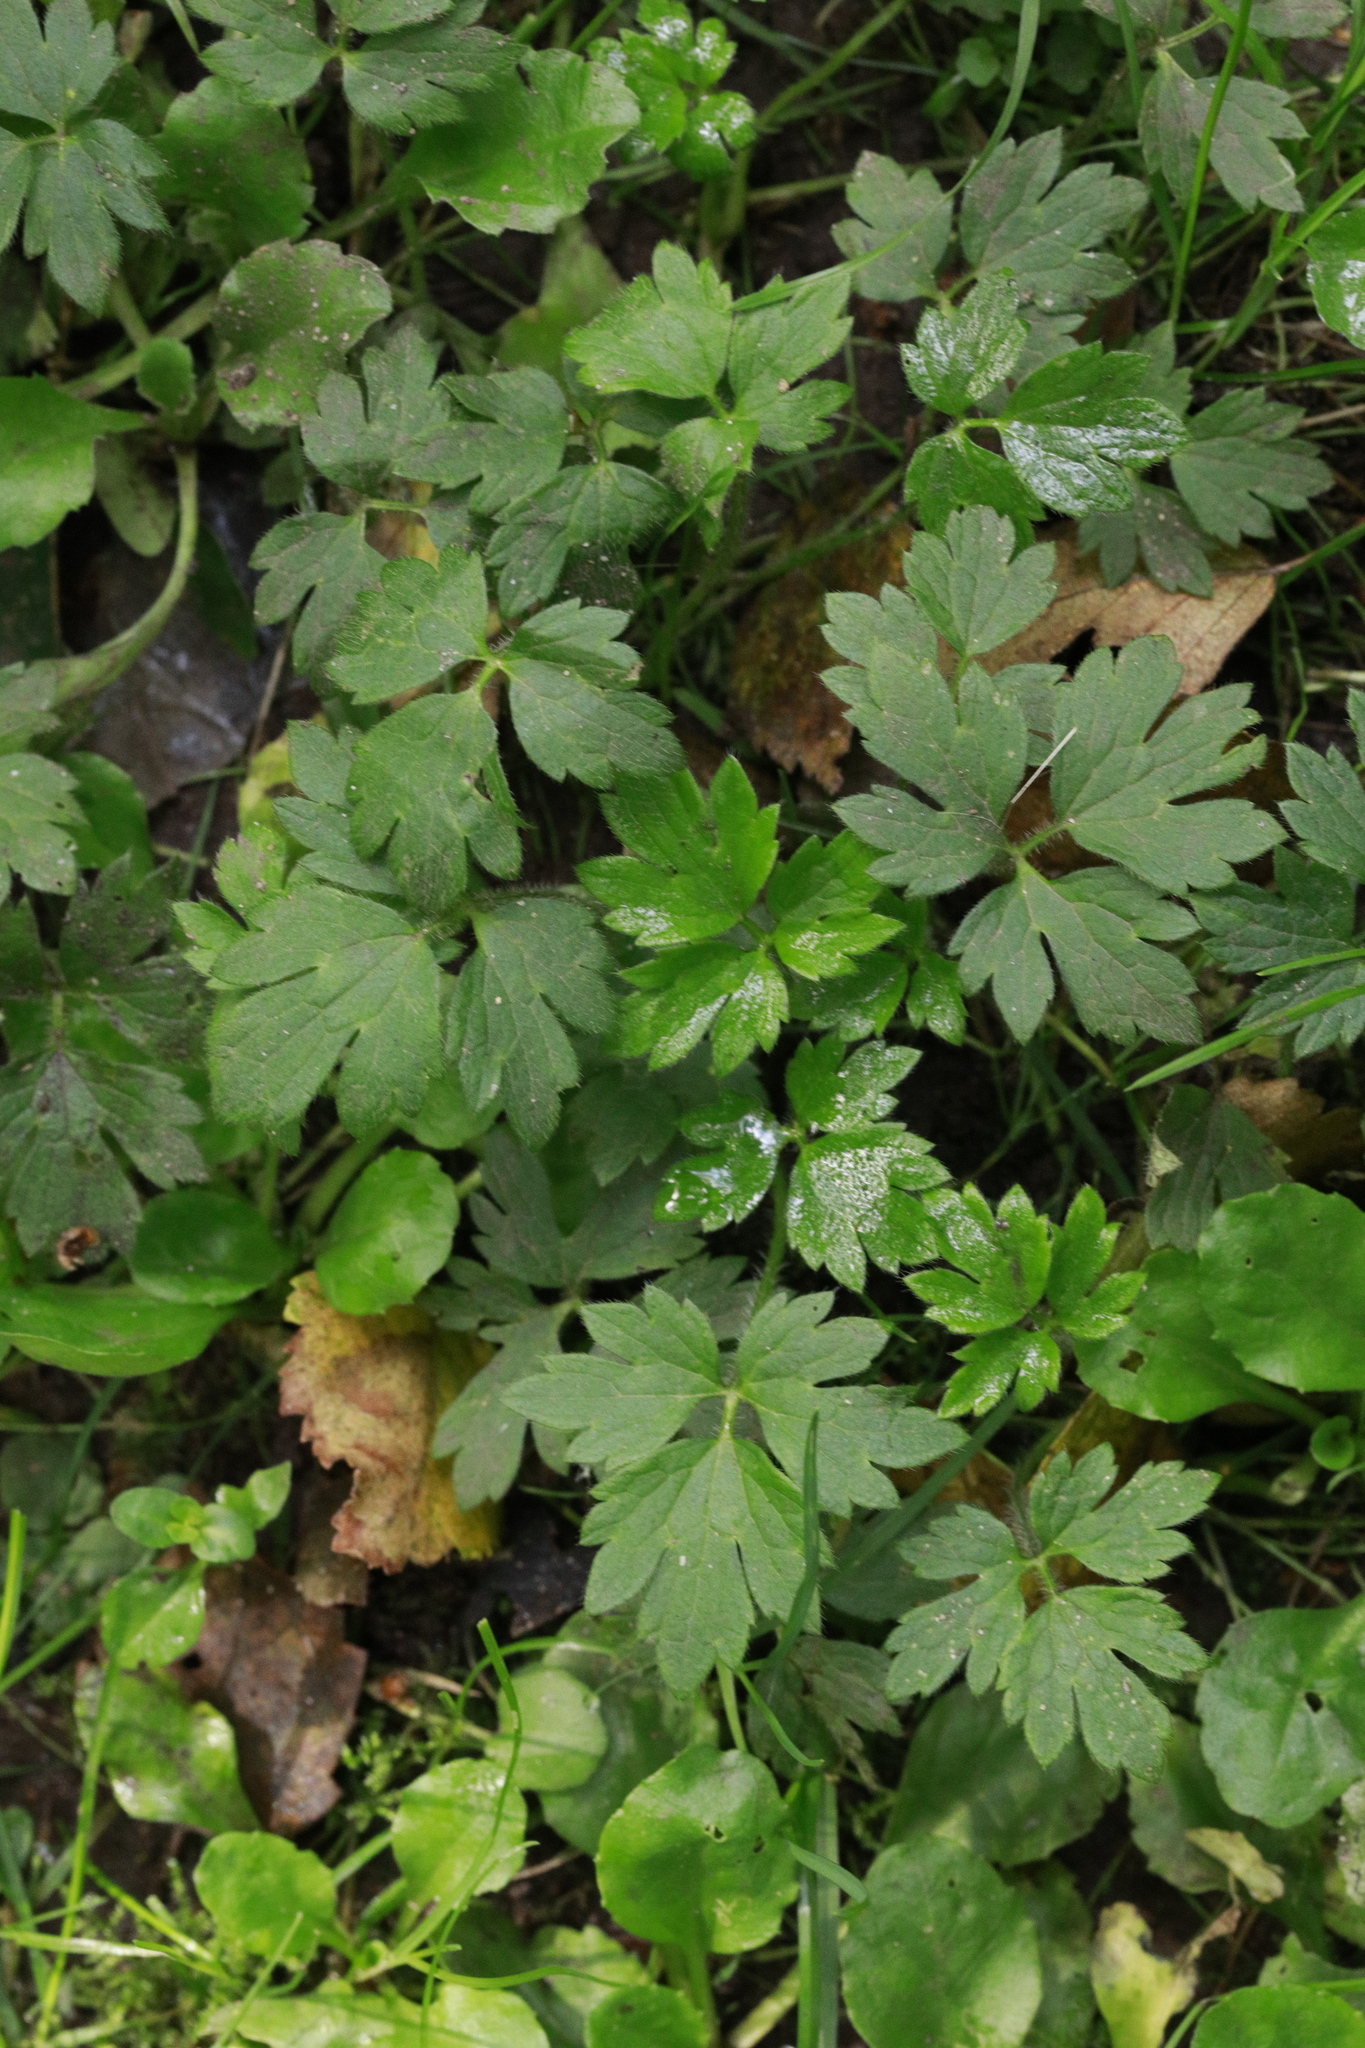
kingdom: Plantae
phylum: Tracheophyta
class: Magnoliopsida
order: Ranunculales
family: Ranunculaceae
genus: Ranunculus
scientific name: Ranunculus repens
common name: Creeping buttercup
